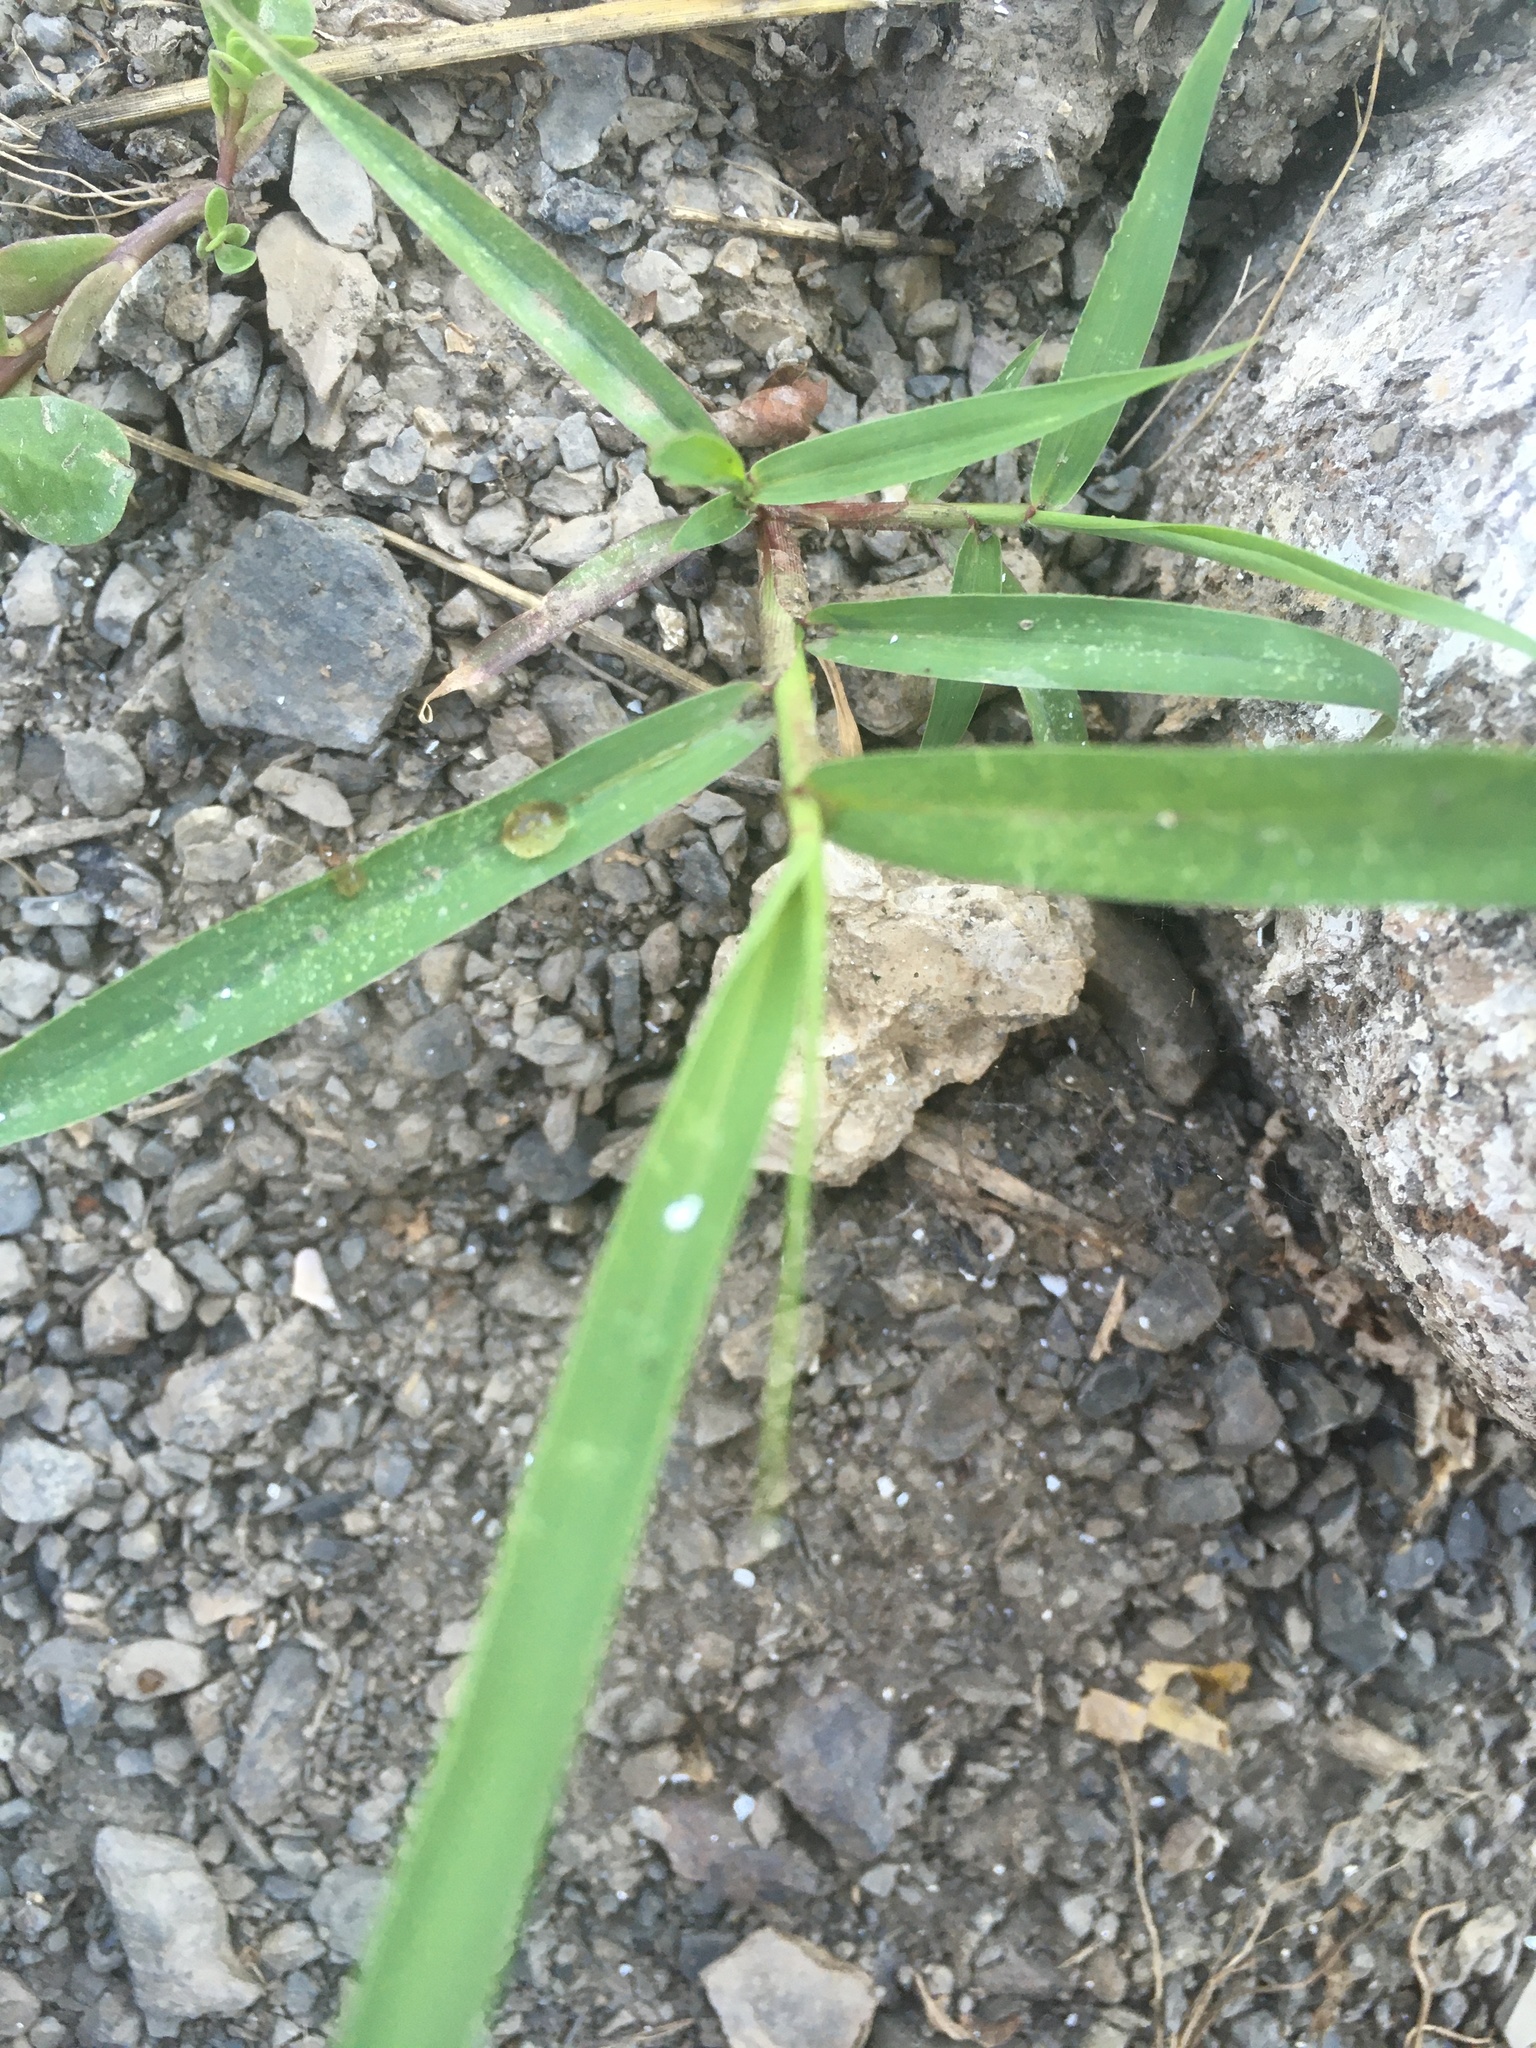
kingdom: Plantae
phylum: Tracheophyta
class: Liliopsida
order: Poales
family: Poaceae
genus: Phragmites
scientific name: Phragmites australis
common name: Common reed
